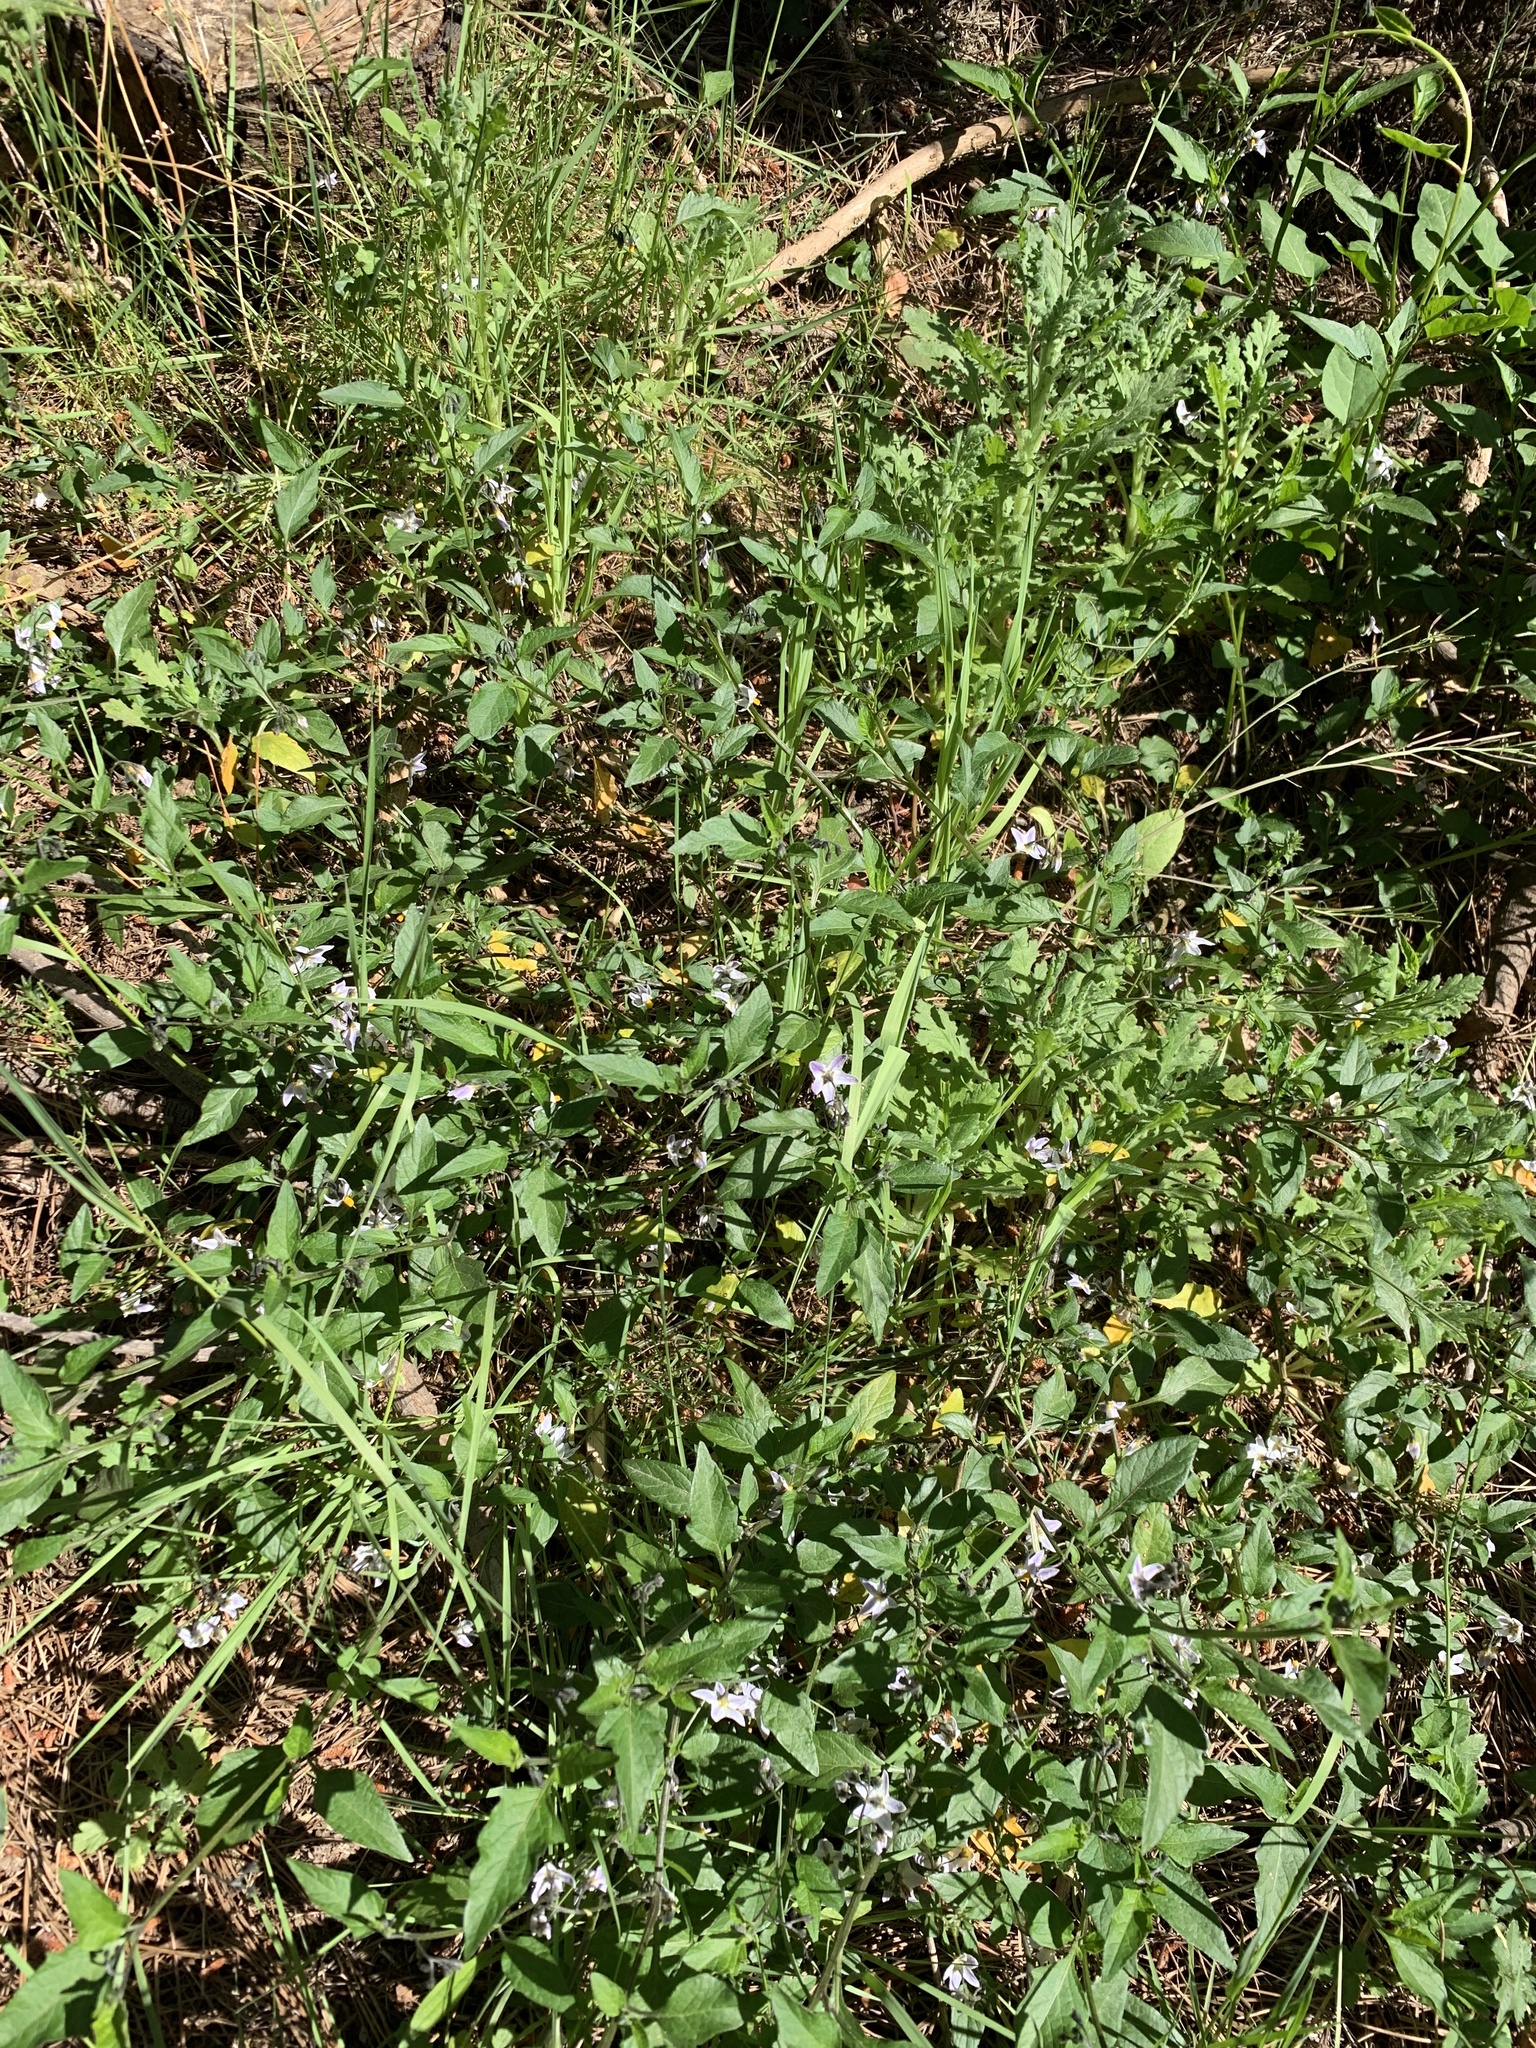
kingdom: Plantae
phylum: Tracheophyta
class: Magnoliopsida
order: Solanales
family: Solanaceae
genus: Solanum
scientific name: Solanum furcatum
